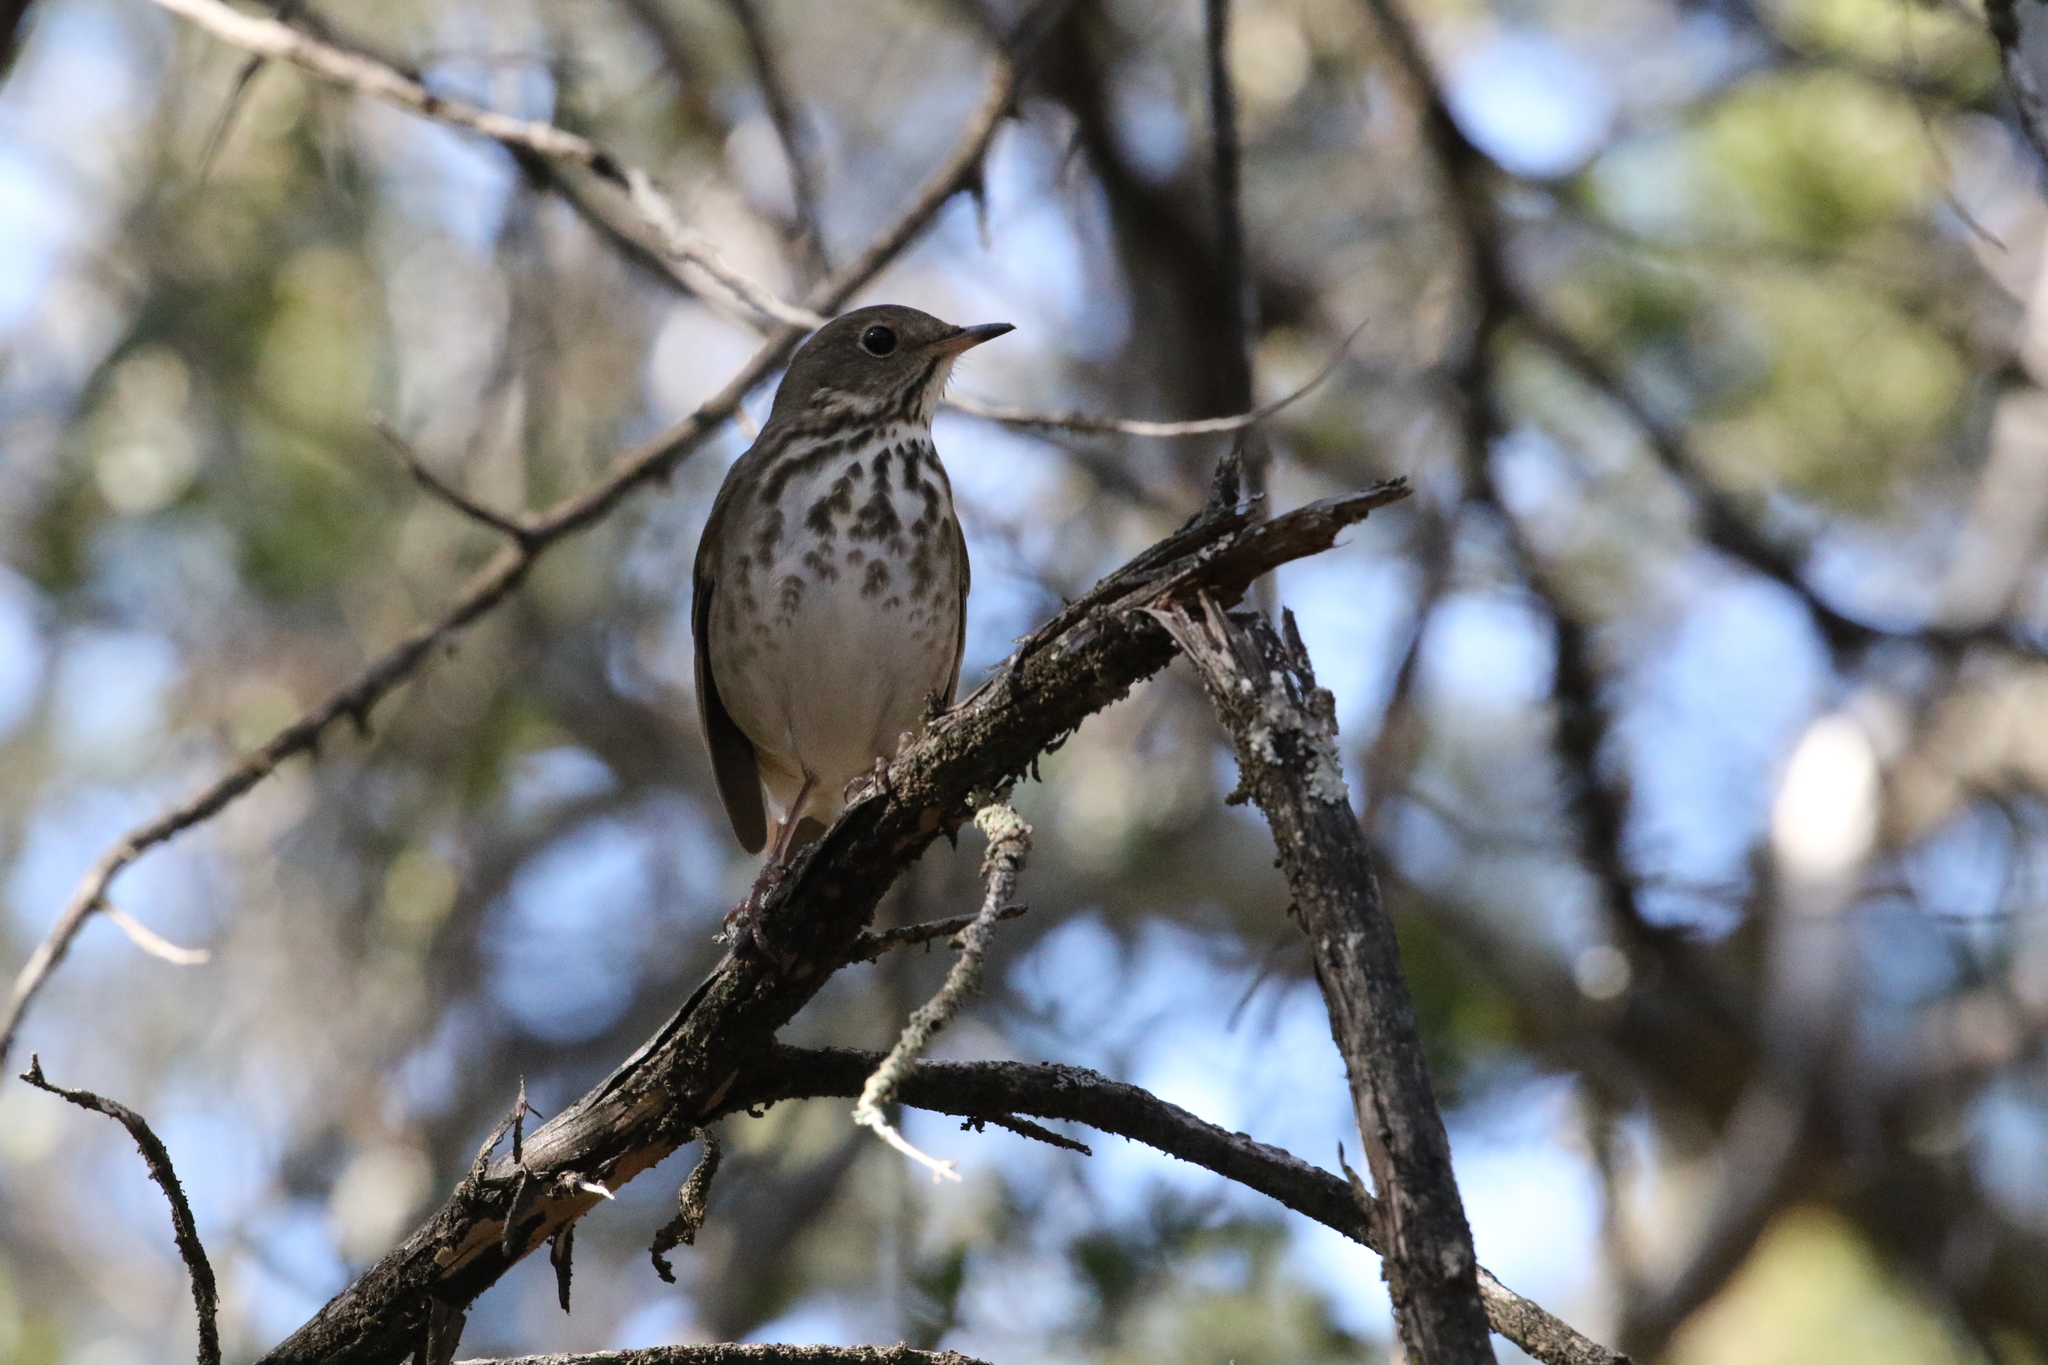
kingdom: Animalia
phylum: Chordata
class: Aves
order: Passeriformes
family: Turdidae
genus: Catharus
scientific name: Catharus guttatus
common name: Hermit thrush
